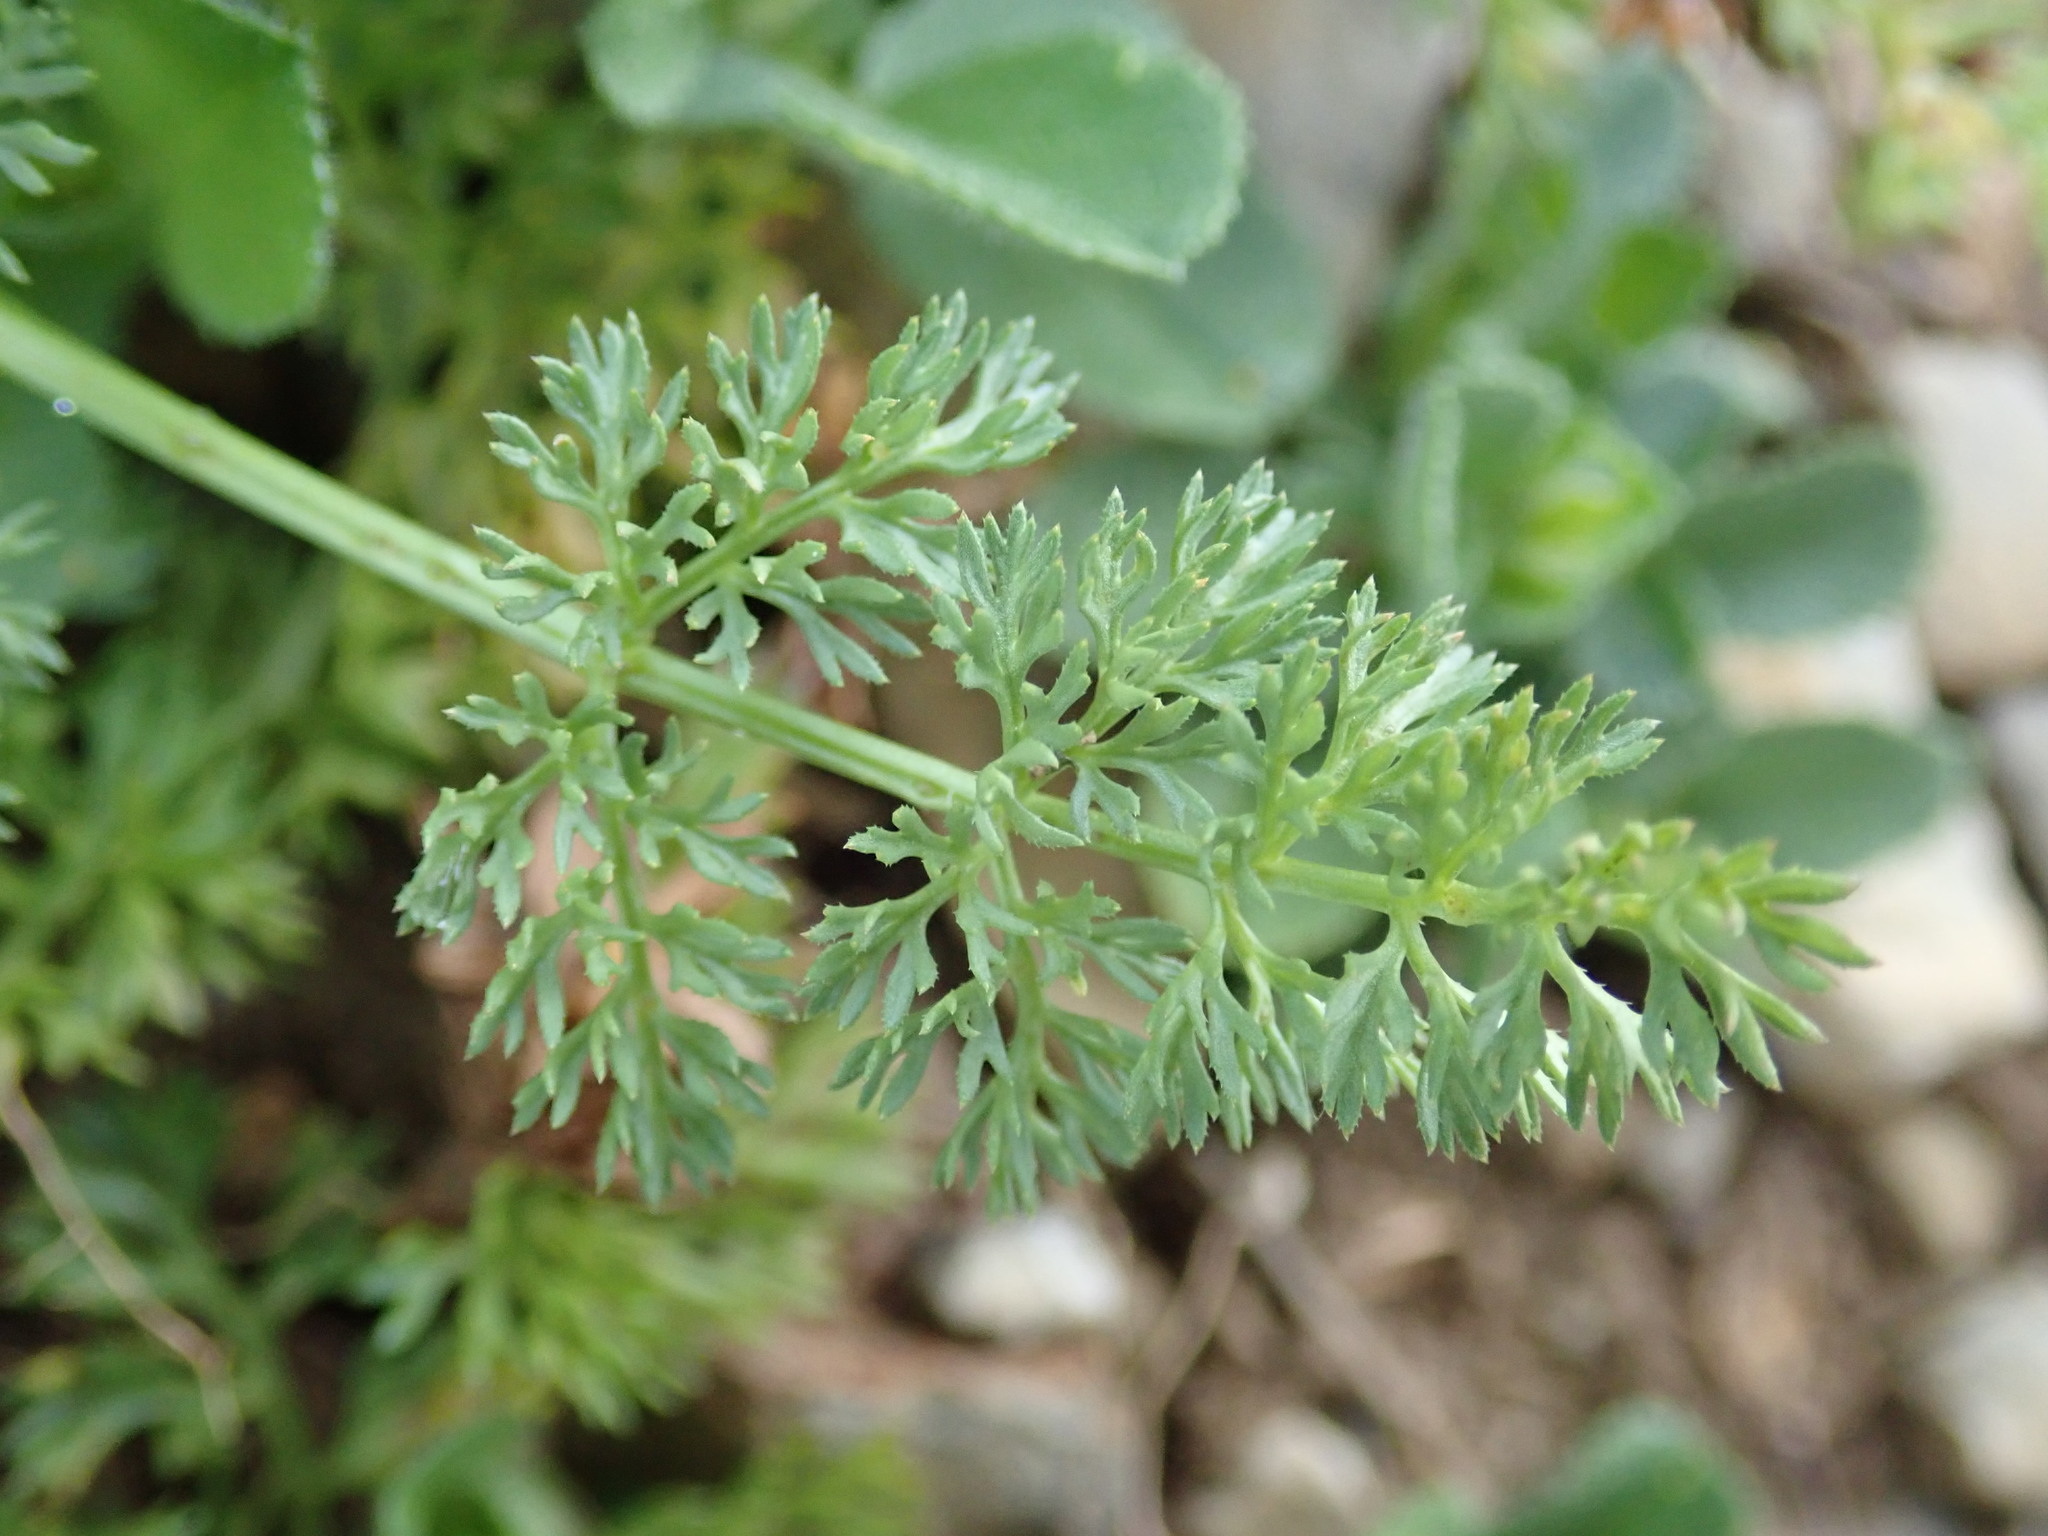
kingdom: Plantae
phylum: Tracheophyta
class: Magnoliopsida
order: Apiales
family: Apiaceae
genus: Scandix
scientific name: Scandix pecten-veneris
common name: Shepherd's-needle
